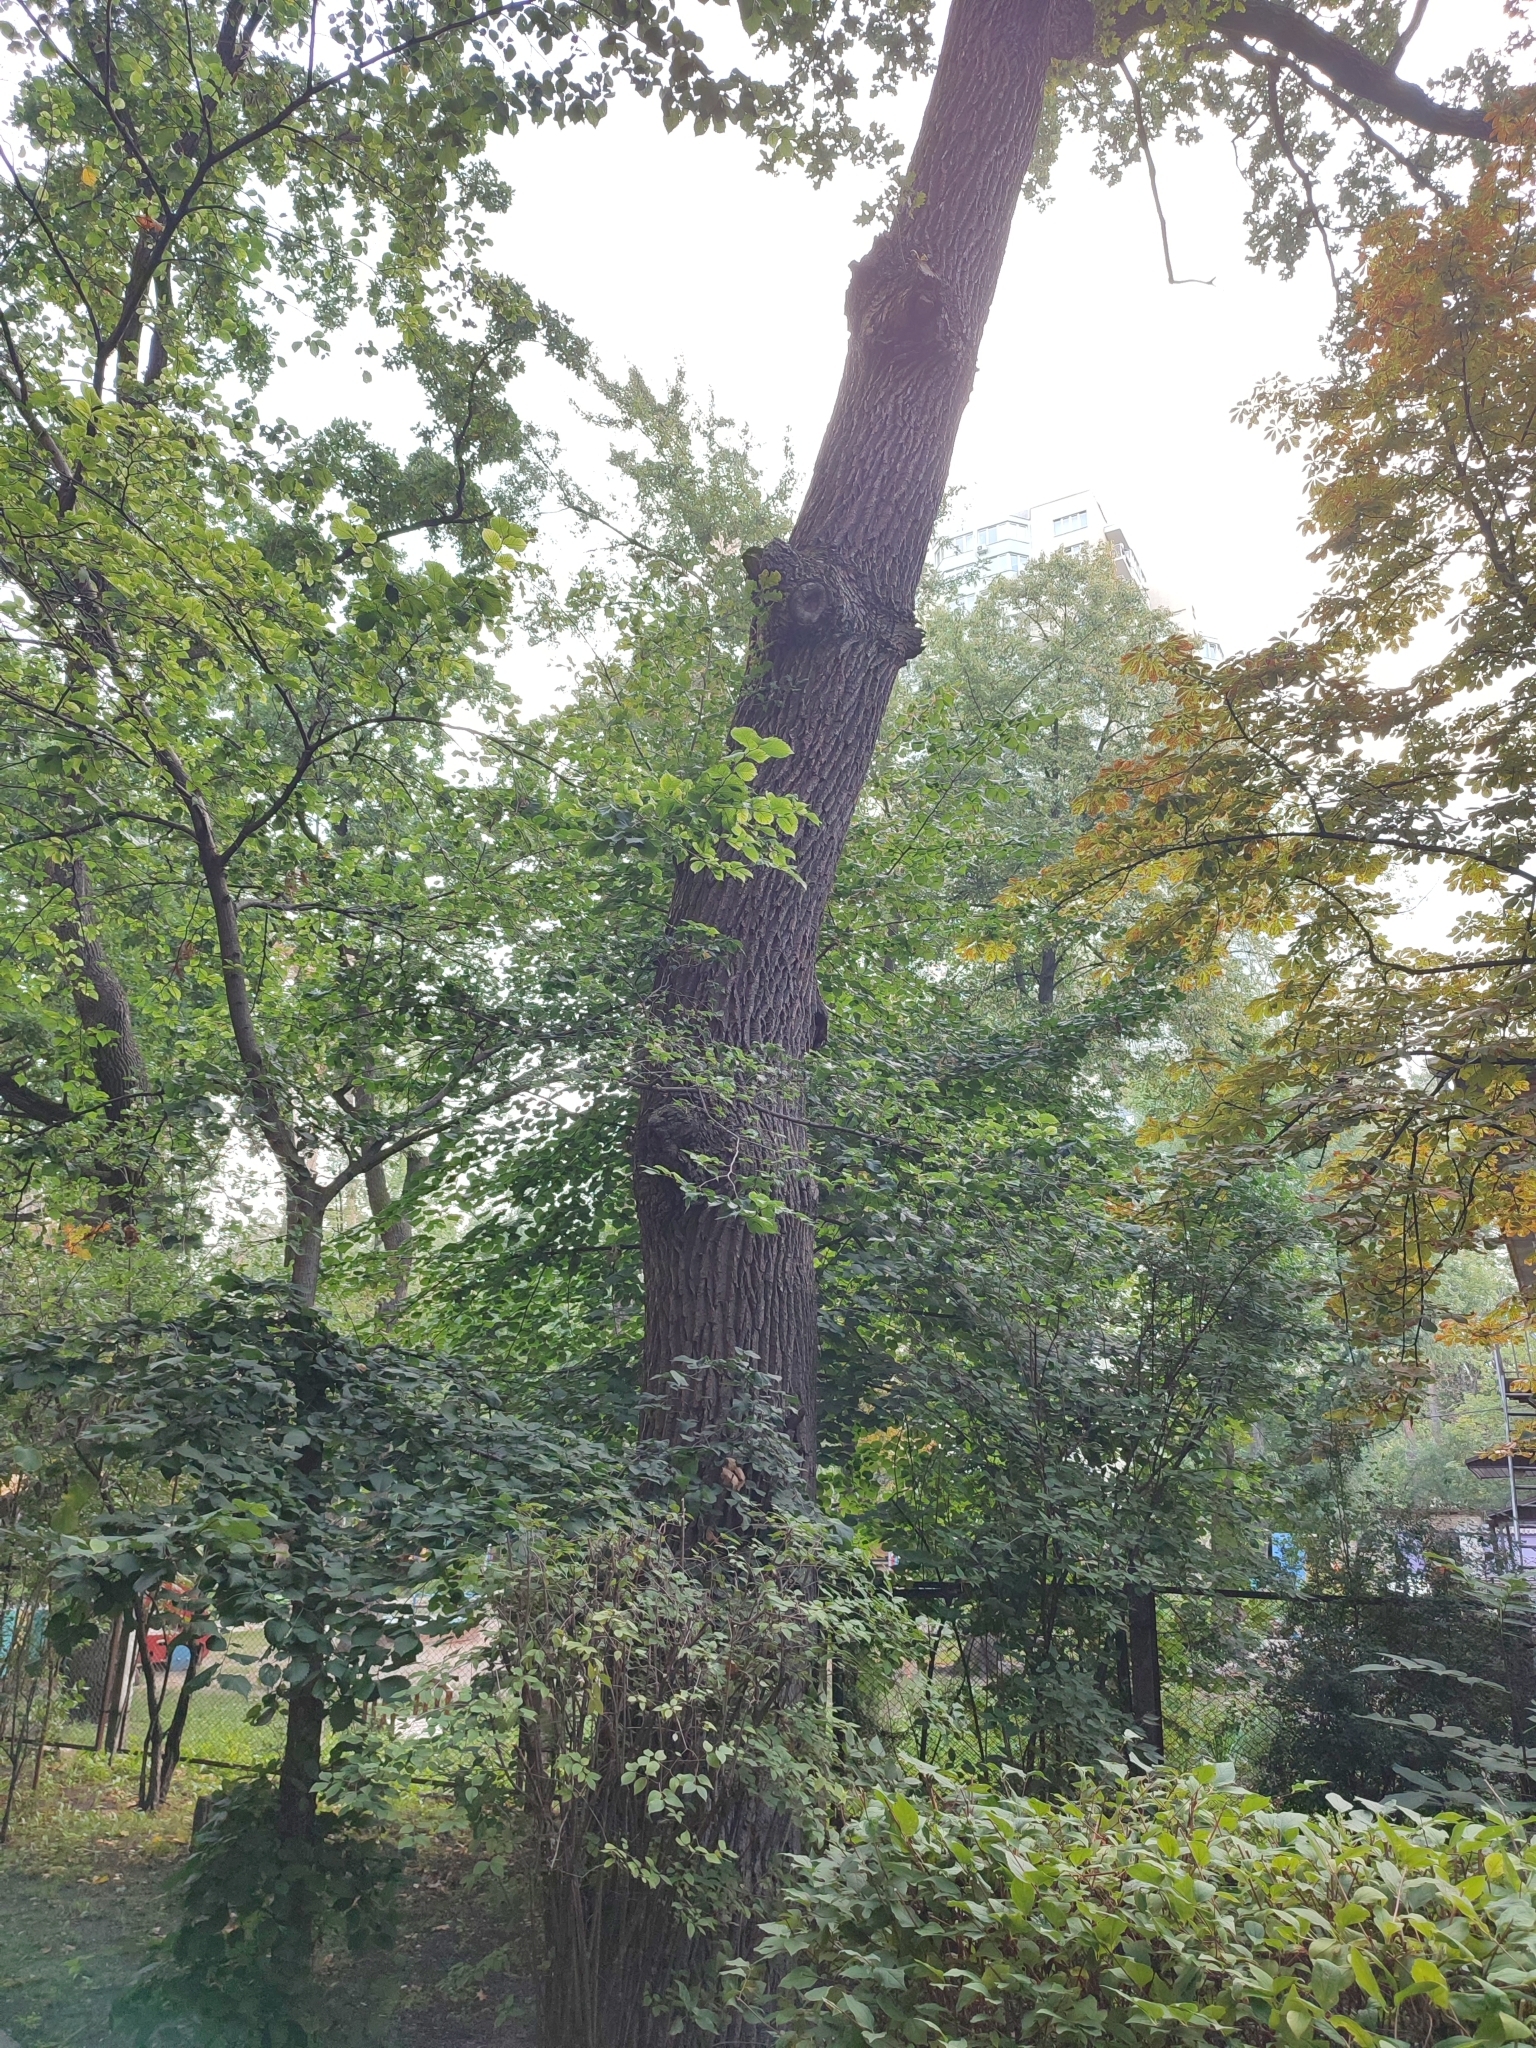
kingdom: Plantae
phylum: Tracheophyta
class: Magnoliopsida
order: Fagales
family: Fagaceae
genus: Quercus
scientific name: Quercus robur
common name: Pedunculate oak
